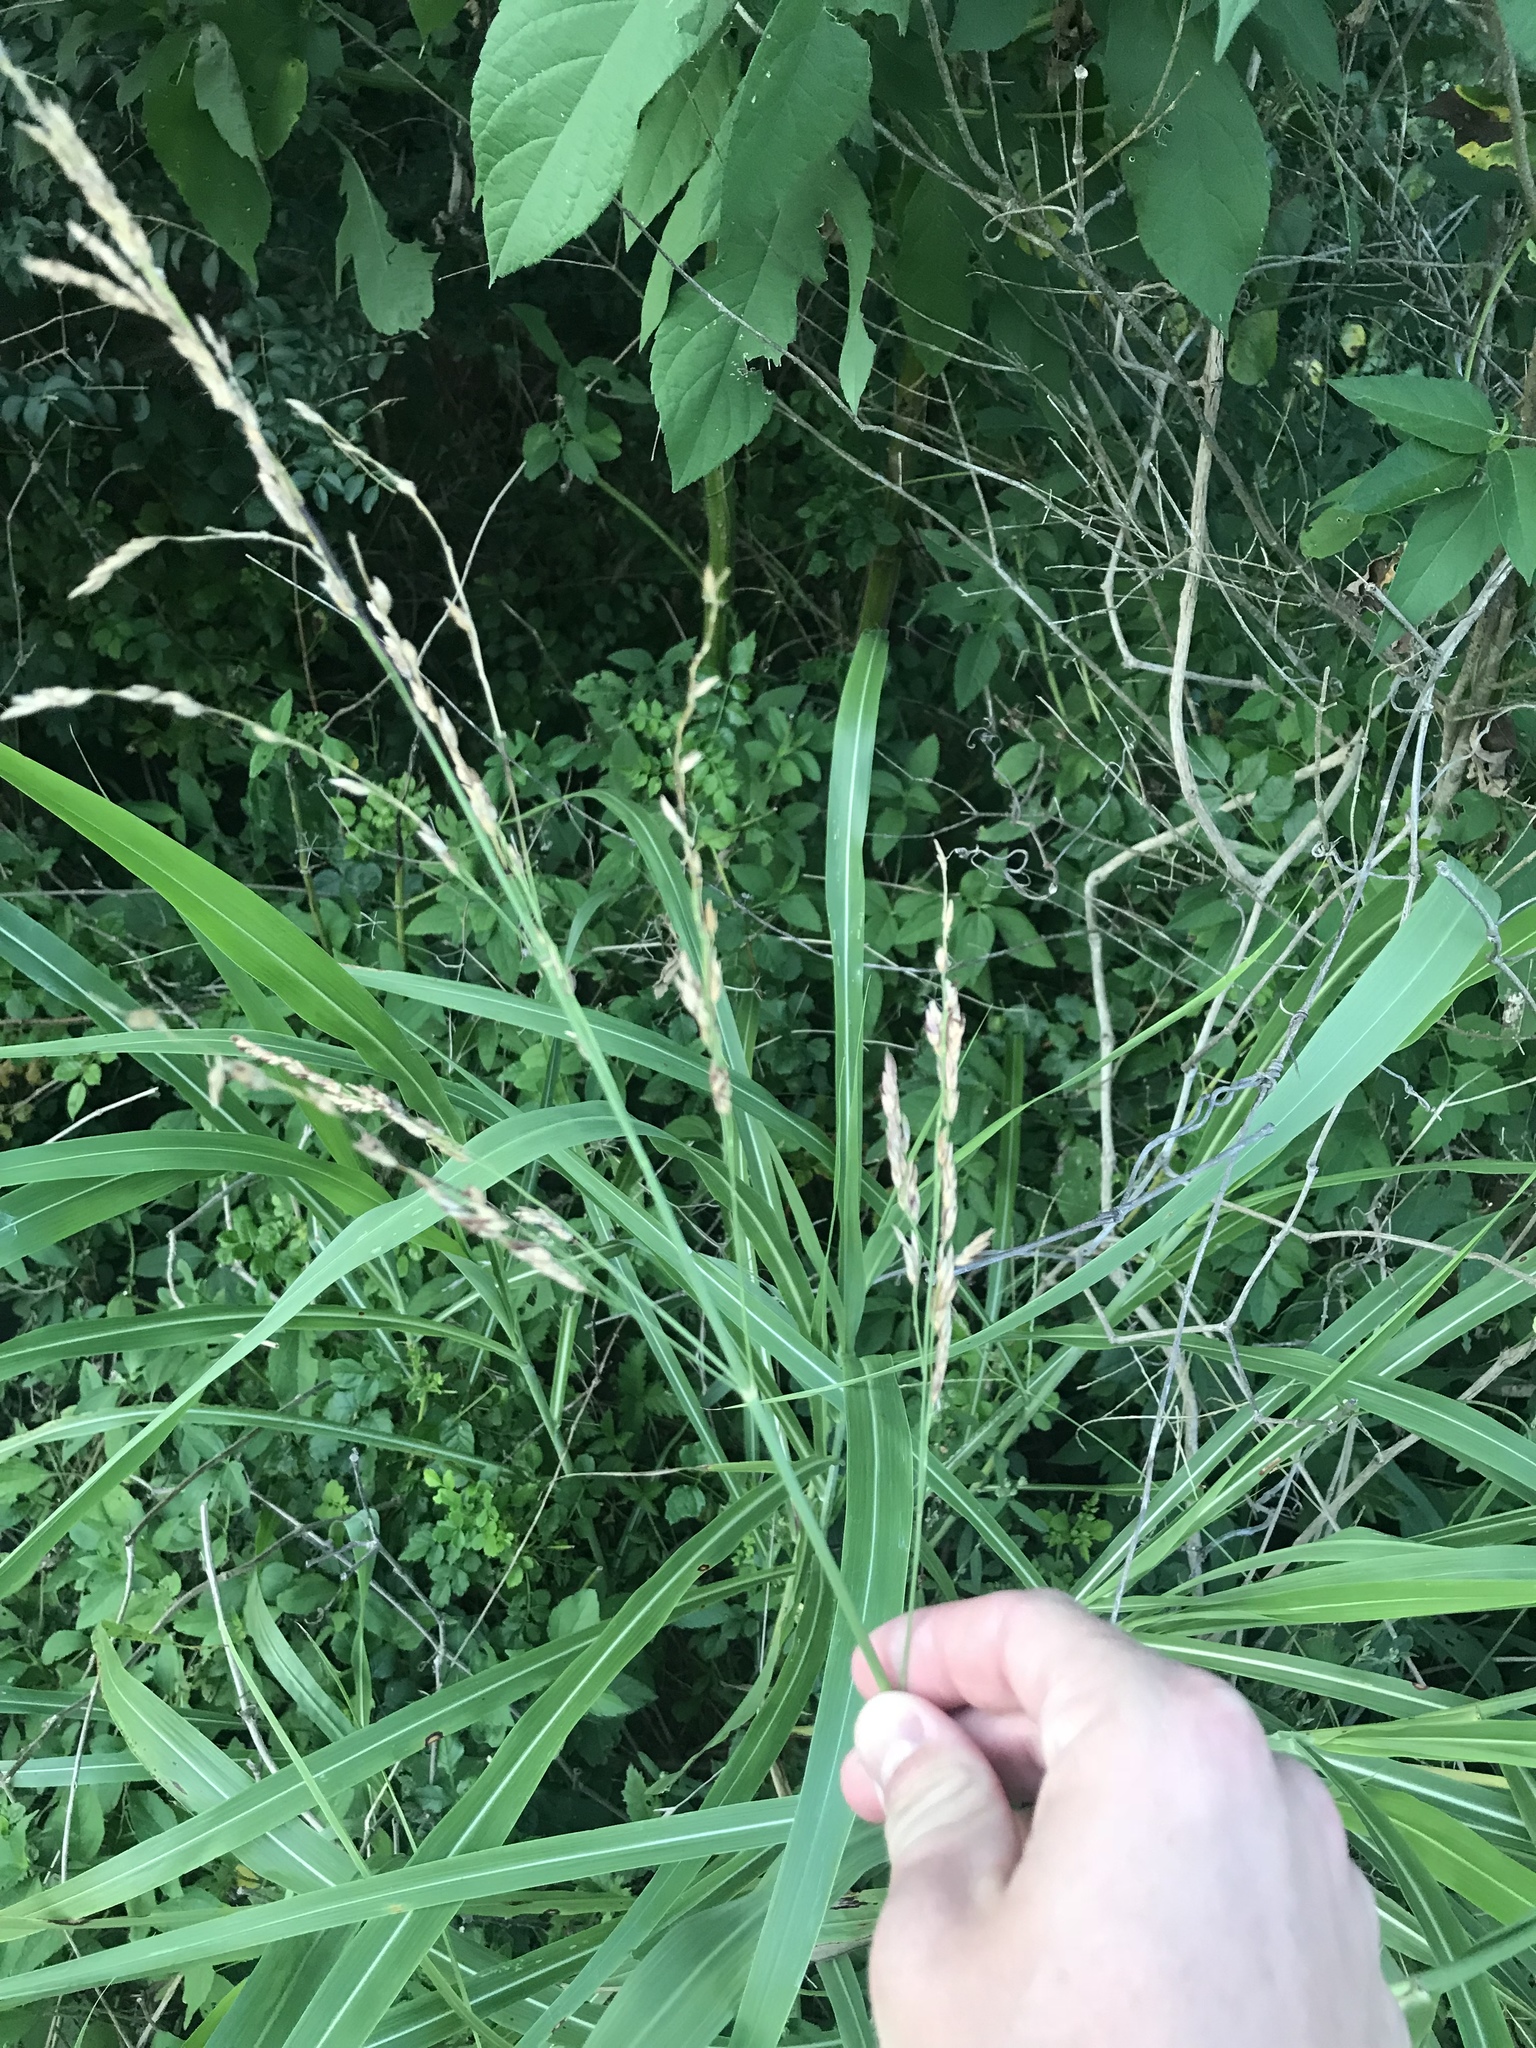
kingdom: Plantae
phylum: Tracheophyta
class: Liliopsida
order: Poales
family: Poaceae
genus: Sorghum
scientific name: Sorghum halepense
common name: Johnson-grass
